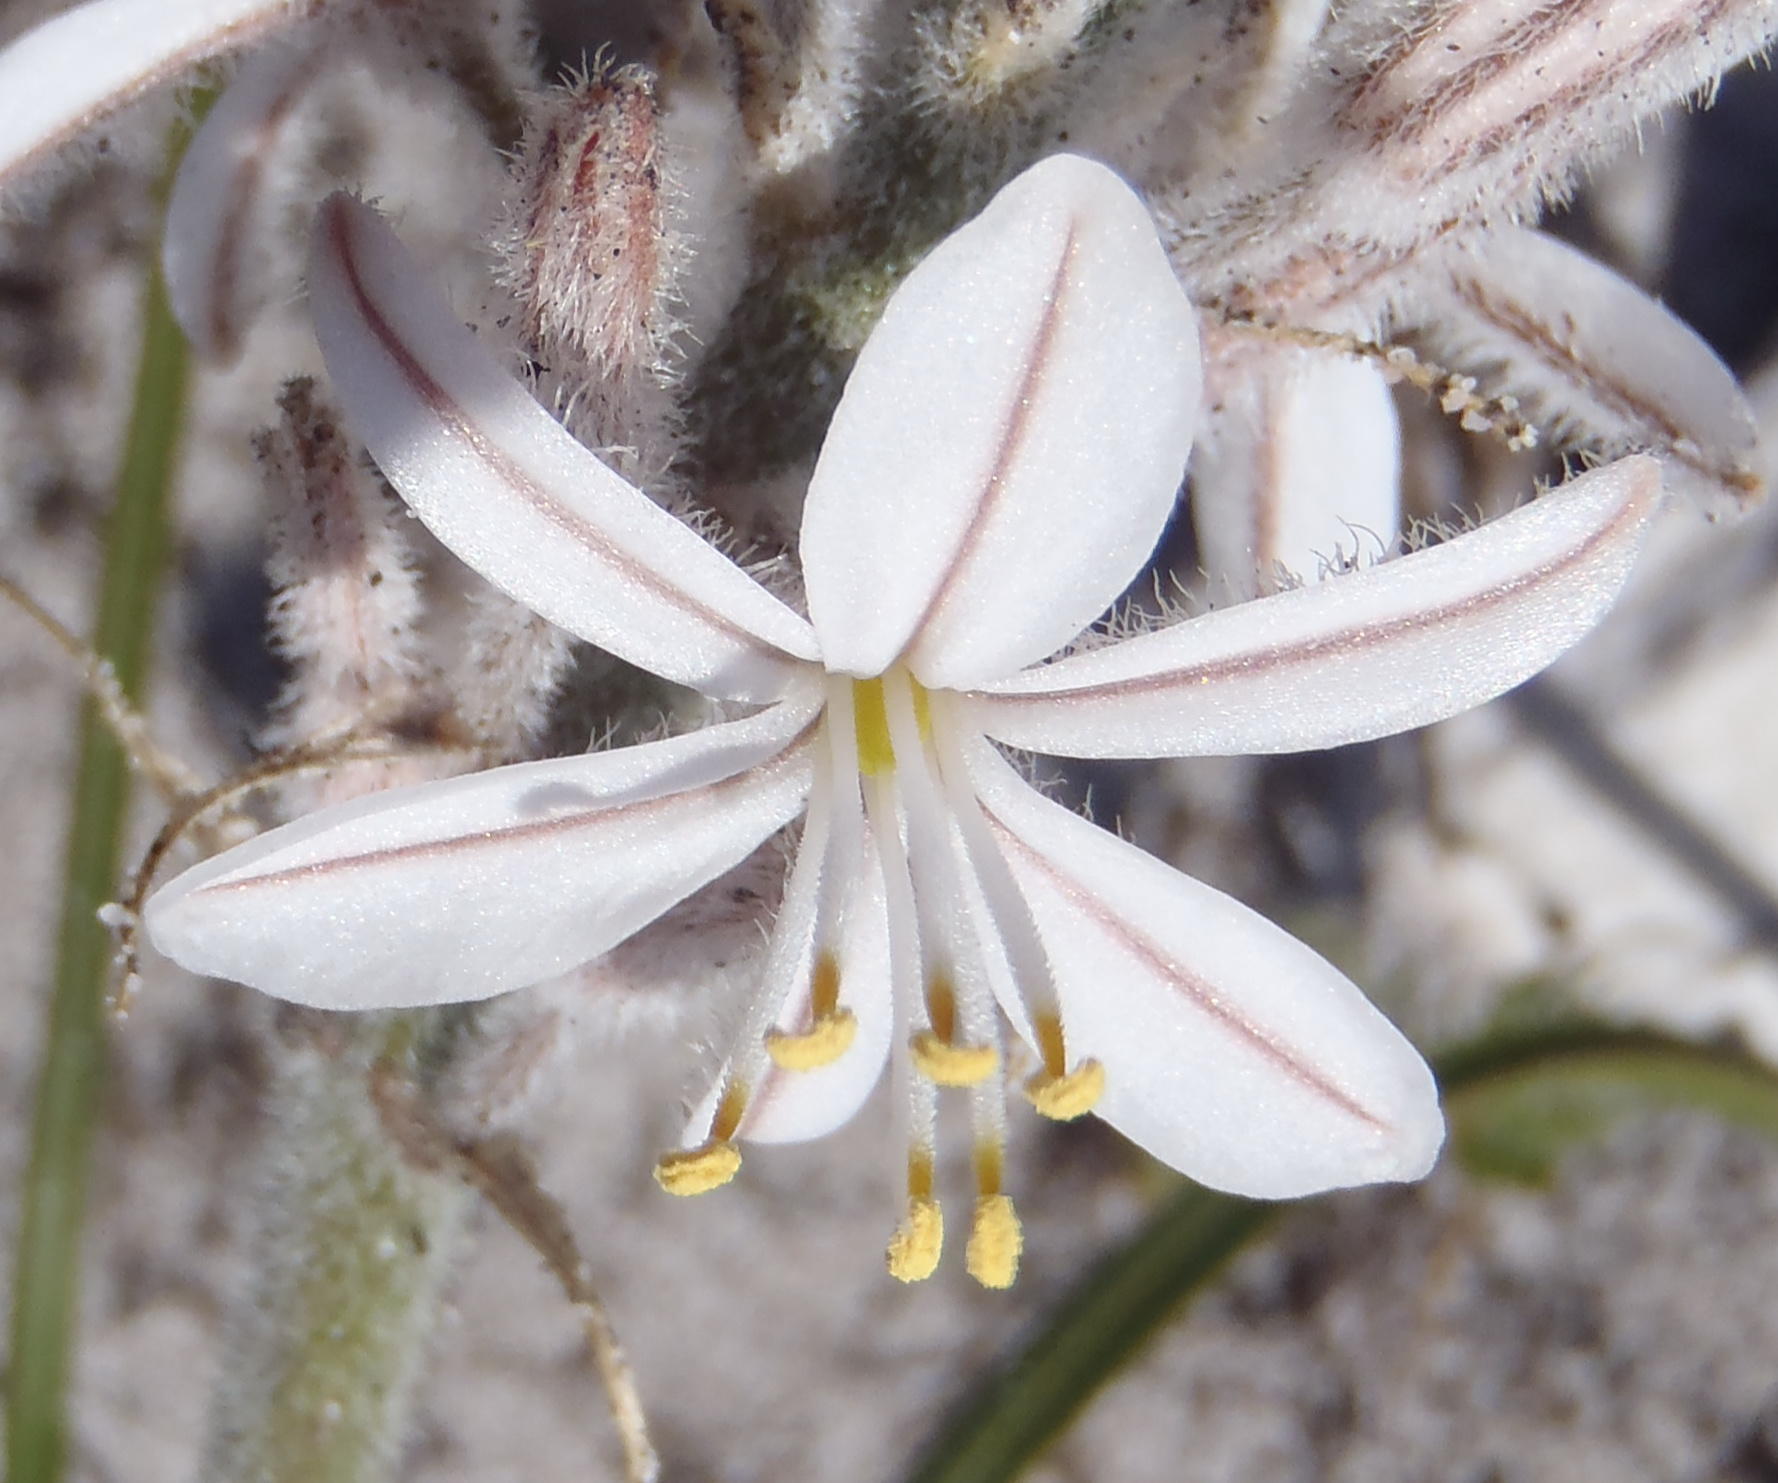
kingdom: Plantae
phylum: Tracheophyta
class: Liliopsida
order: Asparagales
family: Asphodelaceae
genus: Trachyandra
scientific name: Trachyandra hirsutiflora
